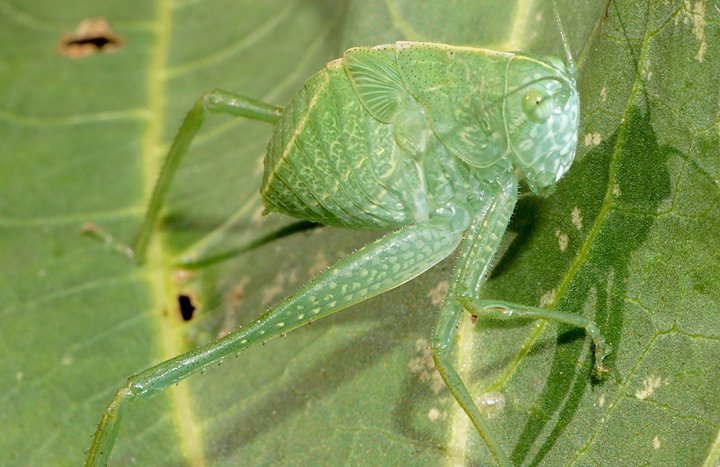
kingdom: Animalia
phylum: Arthropoda
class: Insecta
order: Orthoptera
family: Tettigoniidae
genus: Microcentrum
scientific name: Microcentrum rhombifolium
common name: Broad-winged katydid
